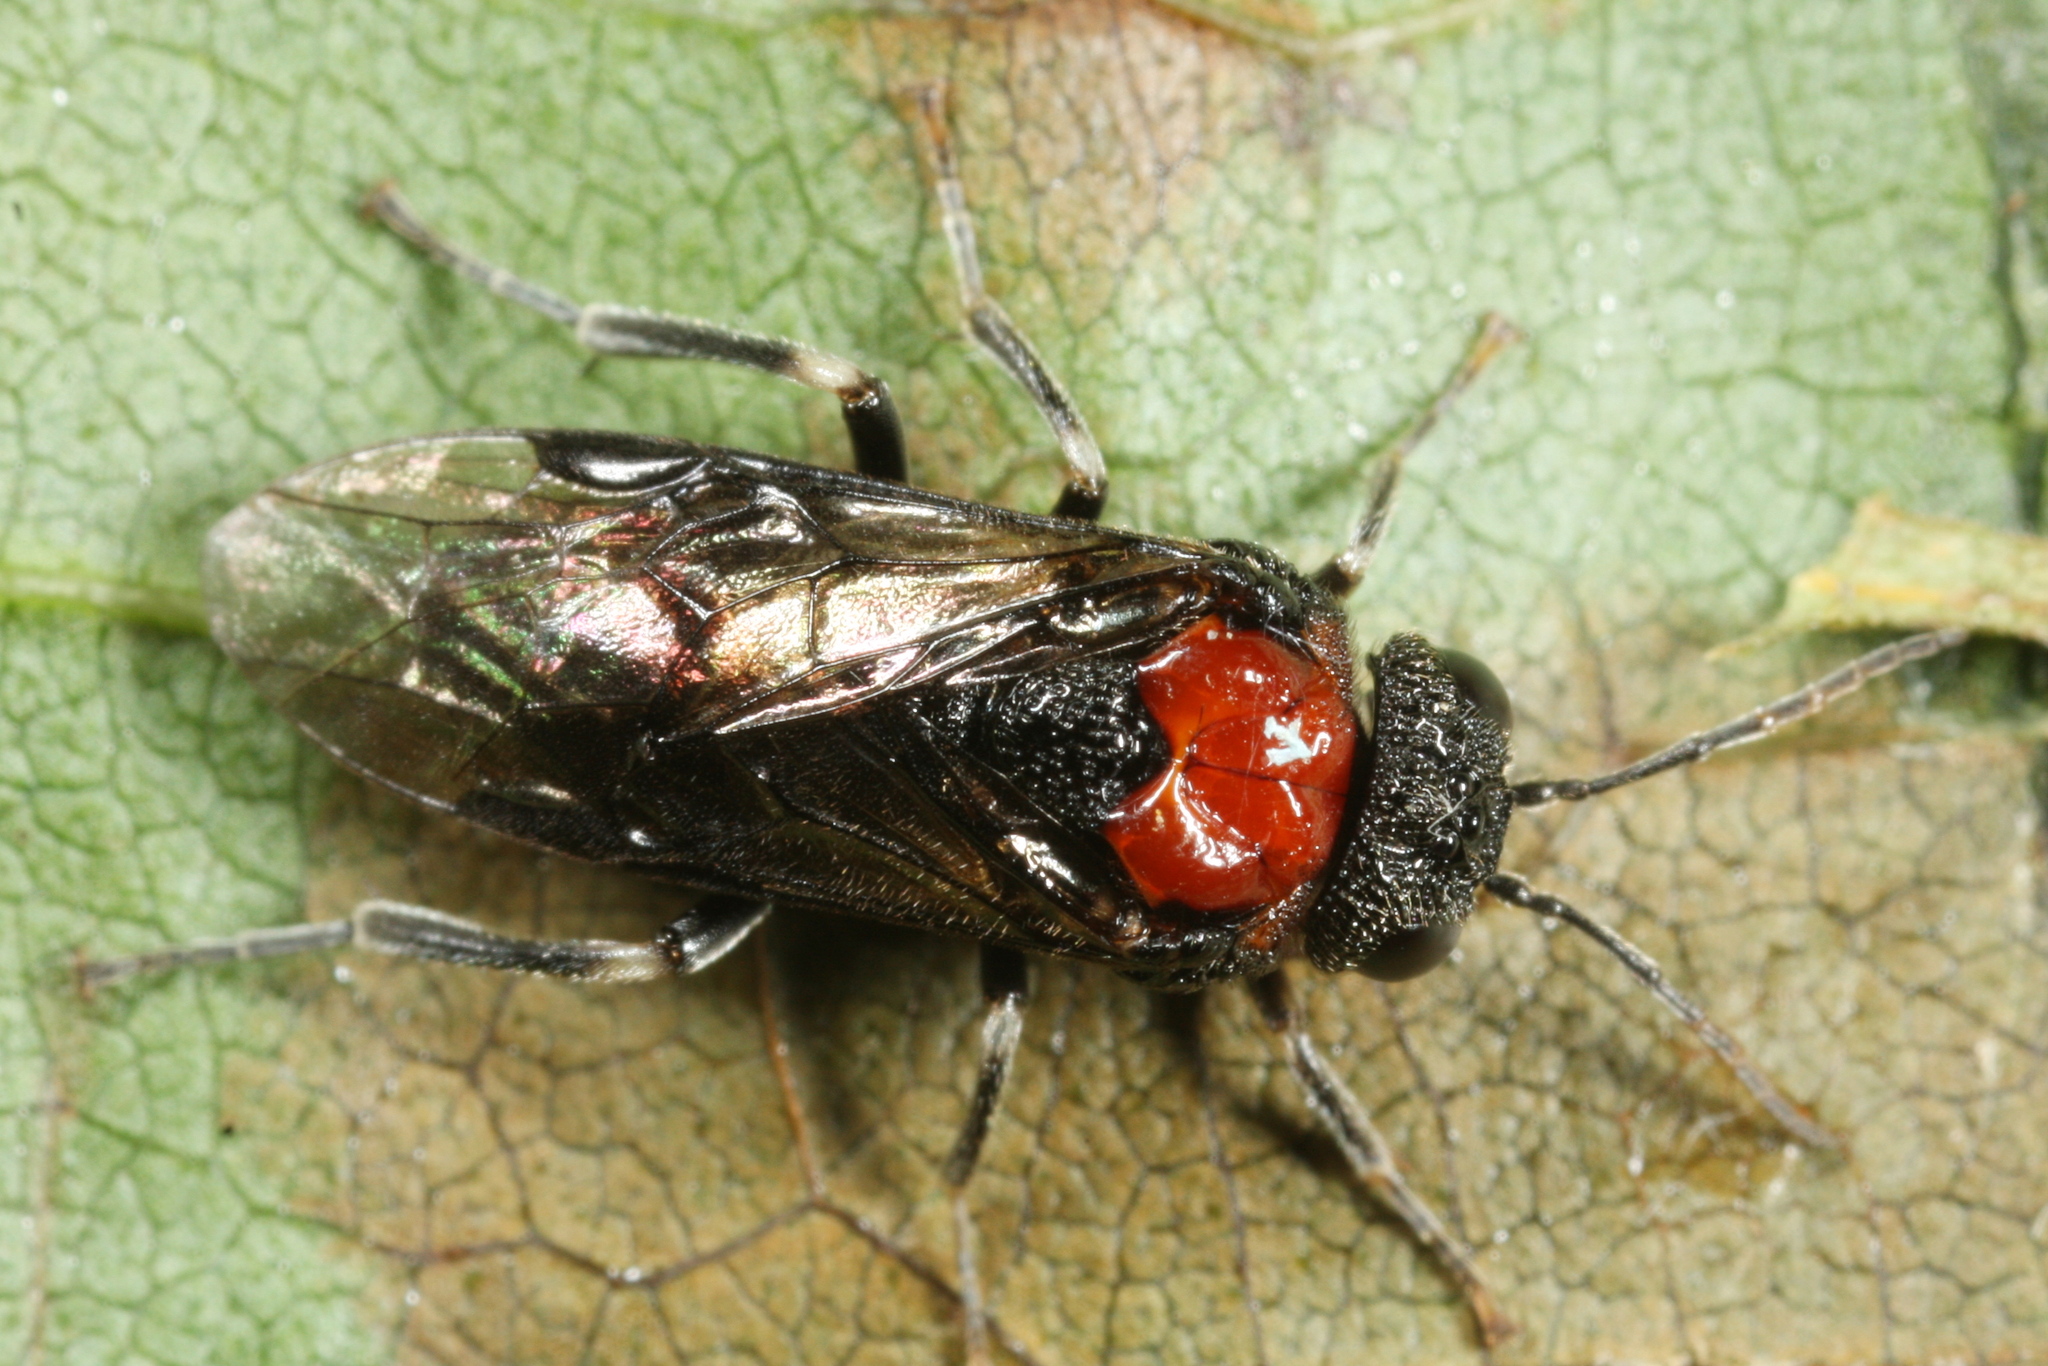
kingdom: Animalia
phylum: Arthropoda
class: Insecta
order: Hymenoptera
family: Tenthredinidae
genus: Eriocampa
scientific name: Eriocampa ovata
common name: Alder wooly sawfly
